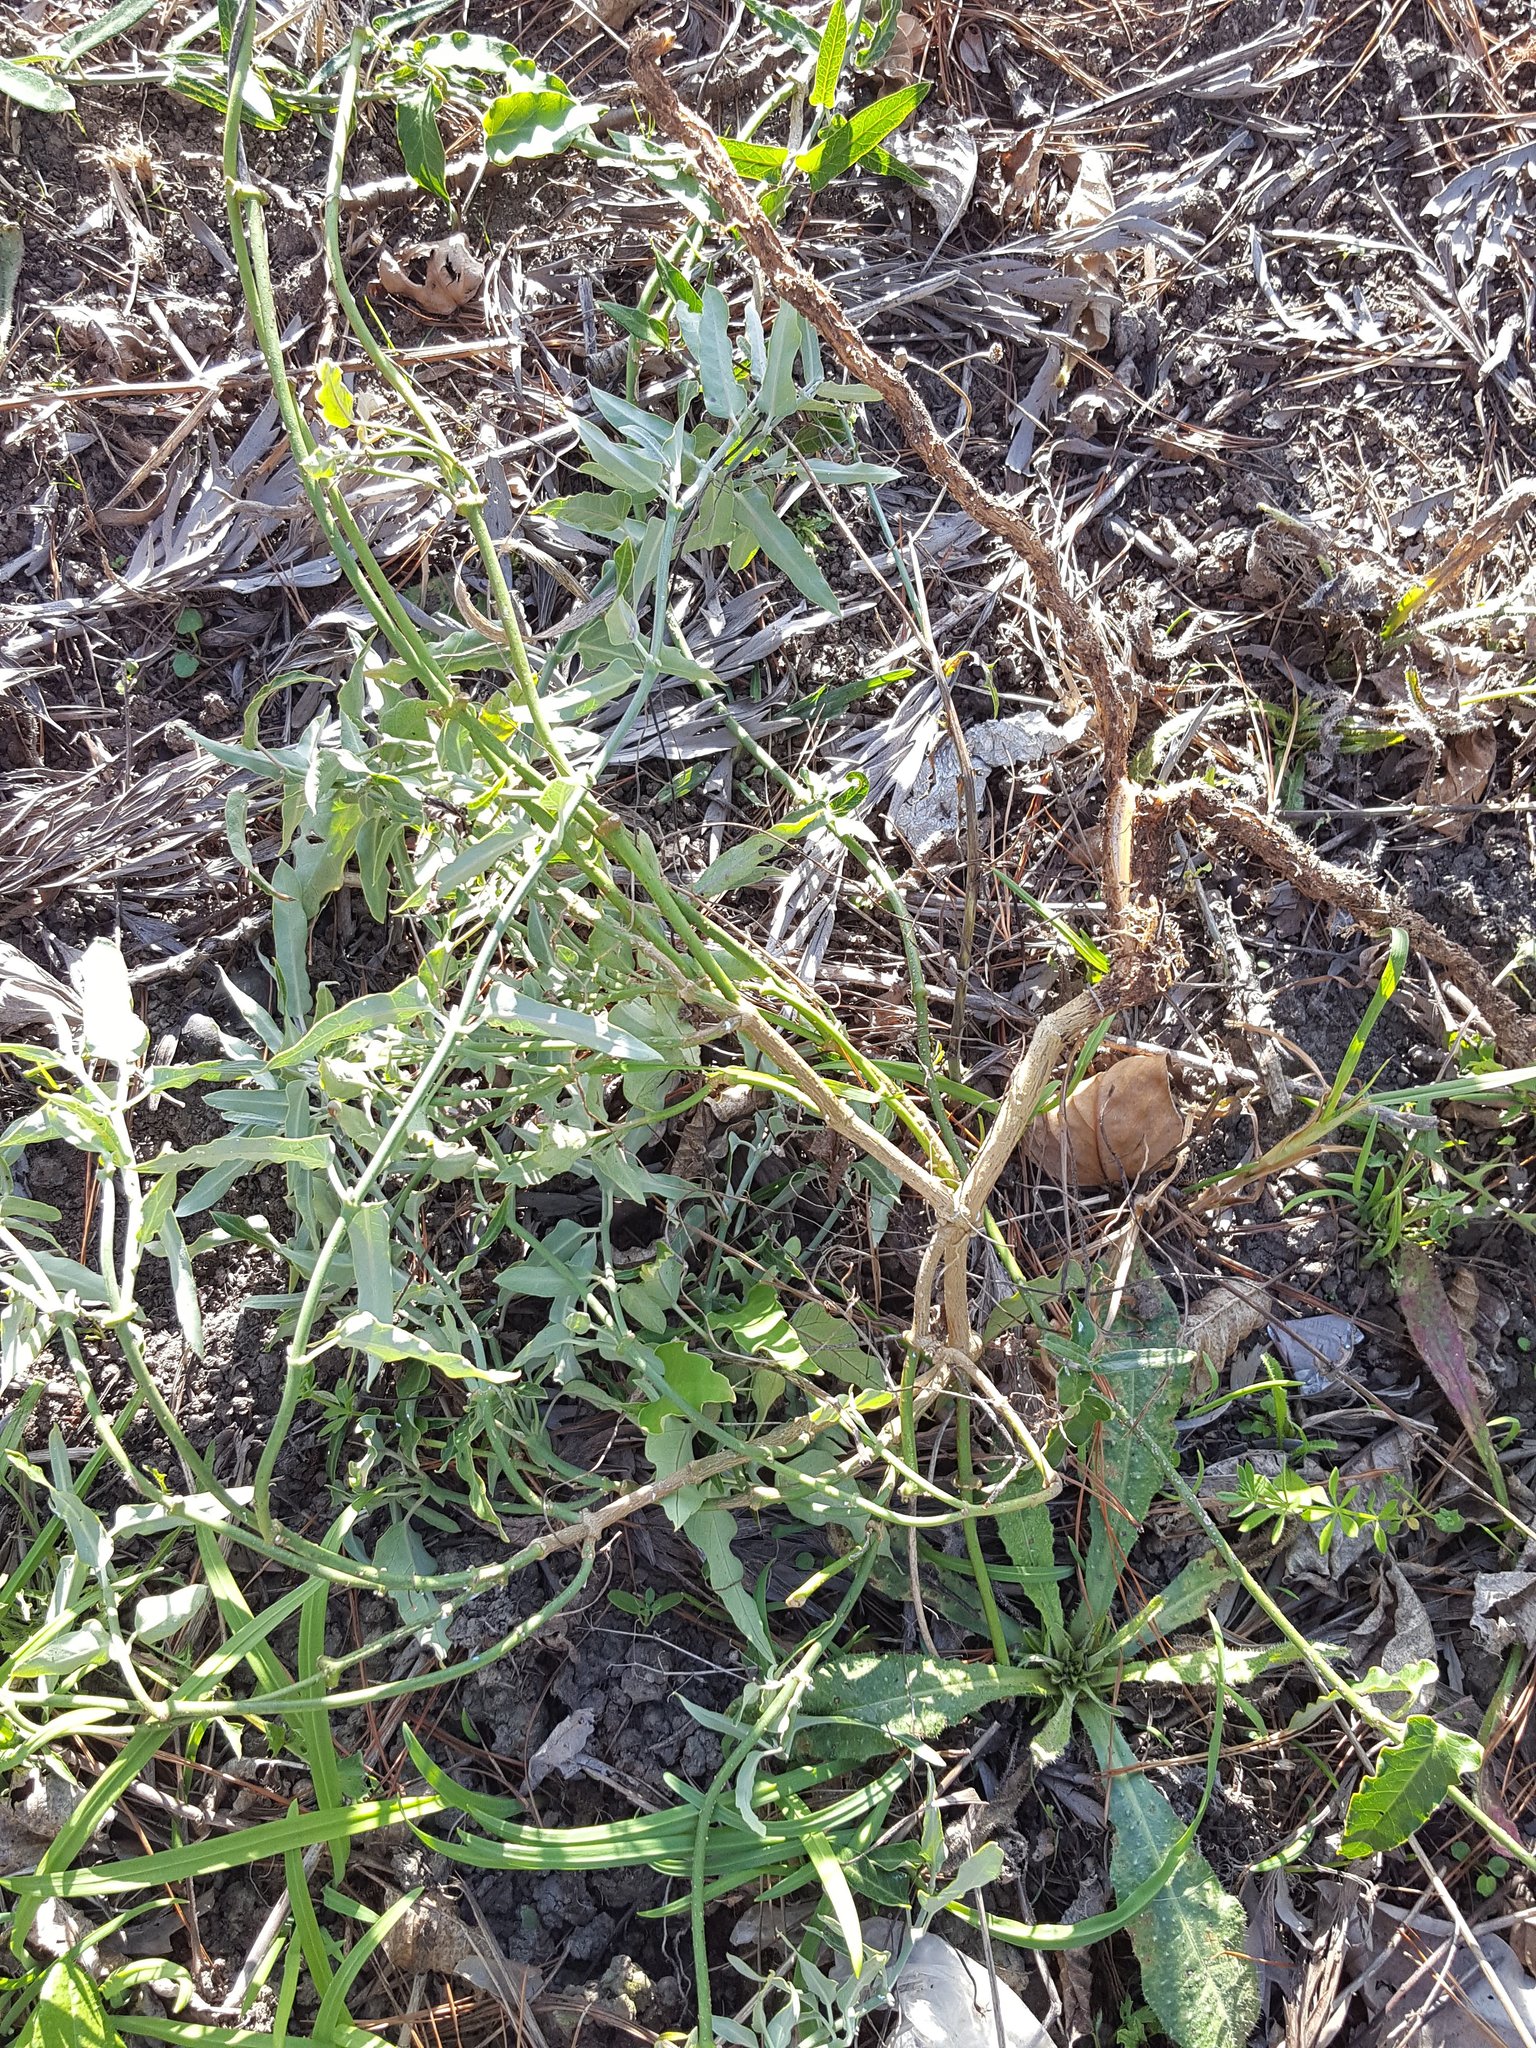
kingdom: Plantae
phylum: Tracheophyta
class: Magnoliopsida
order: Gentianales
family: Apocynaceae
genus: Araujia
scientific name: Araujia sericifera
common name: White bladderflower
